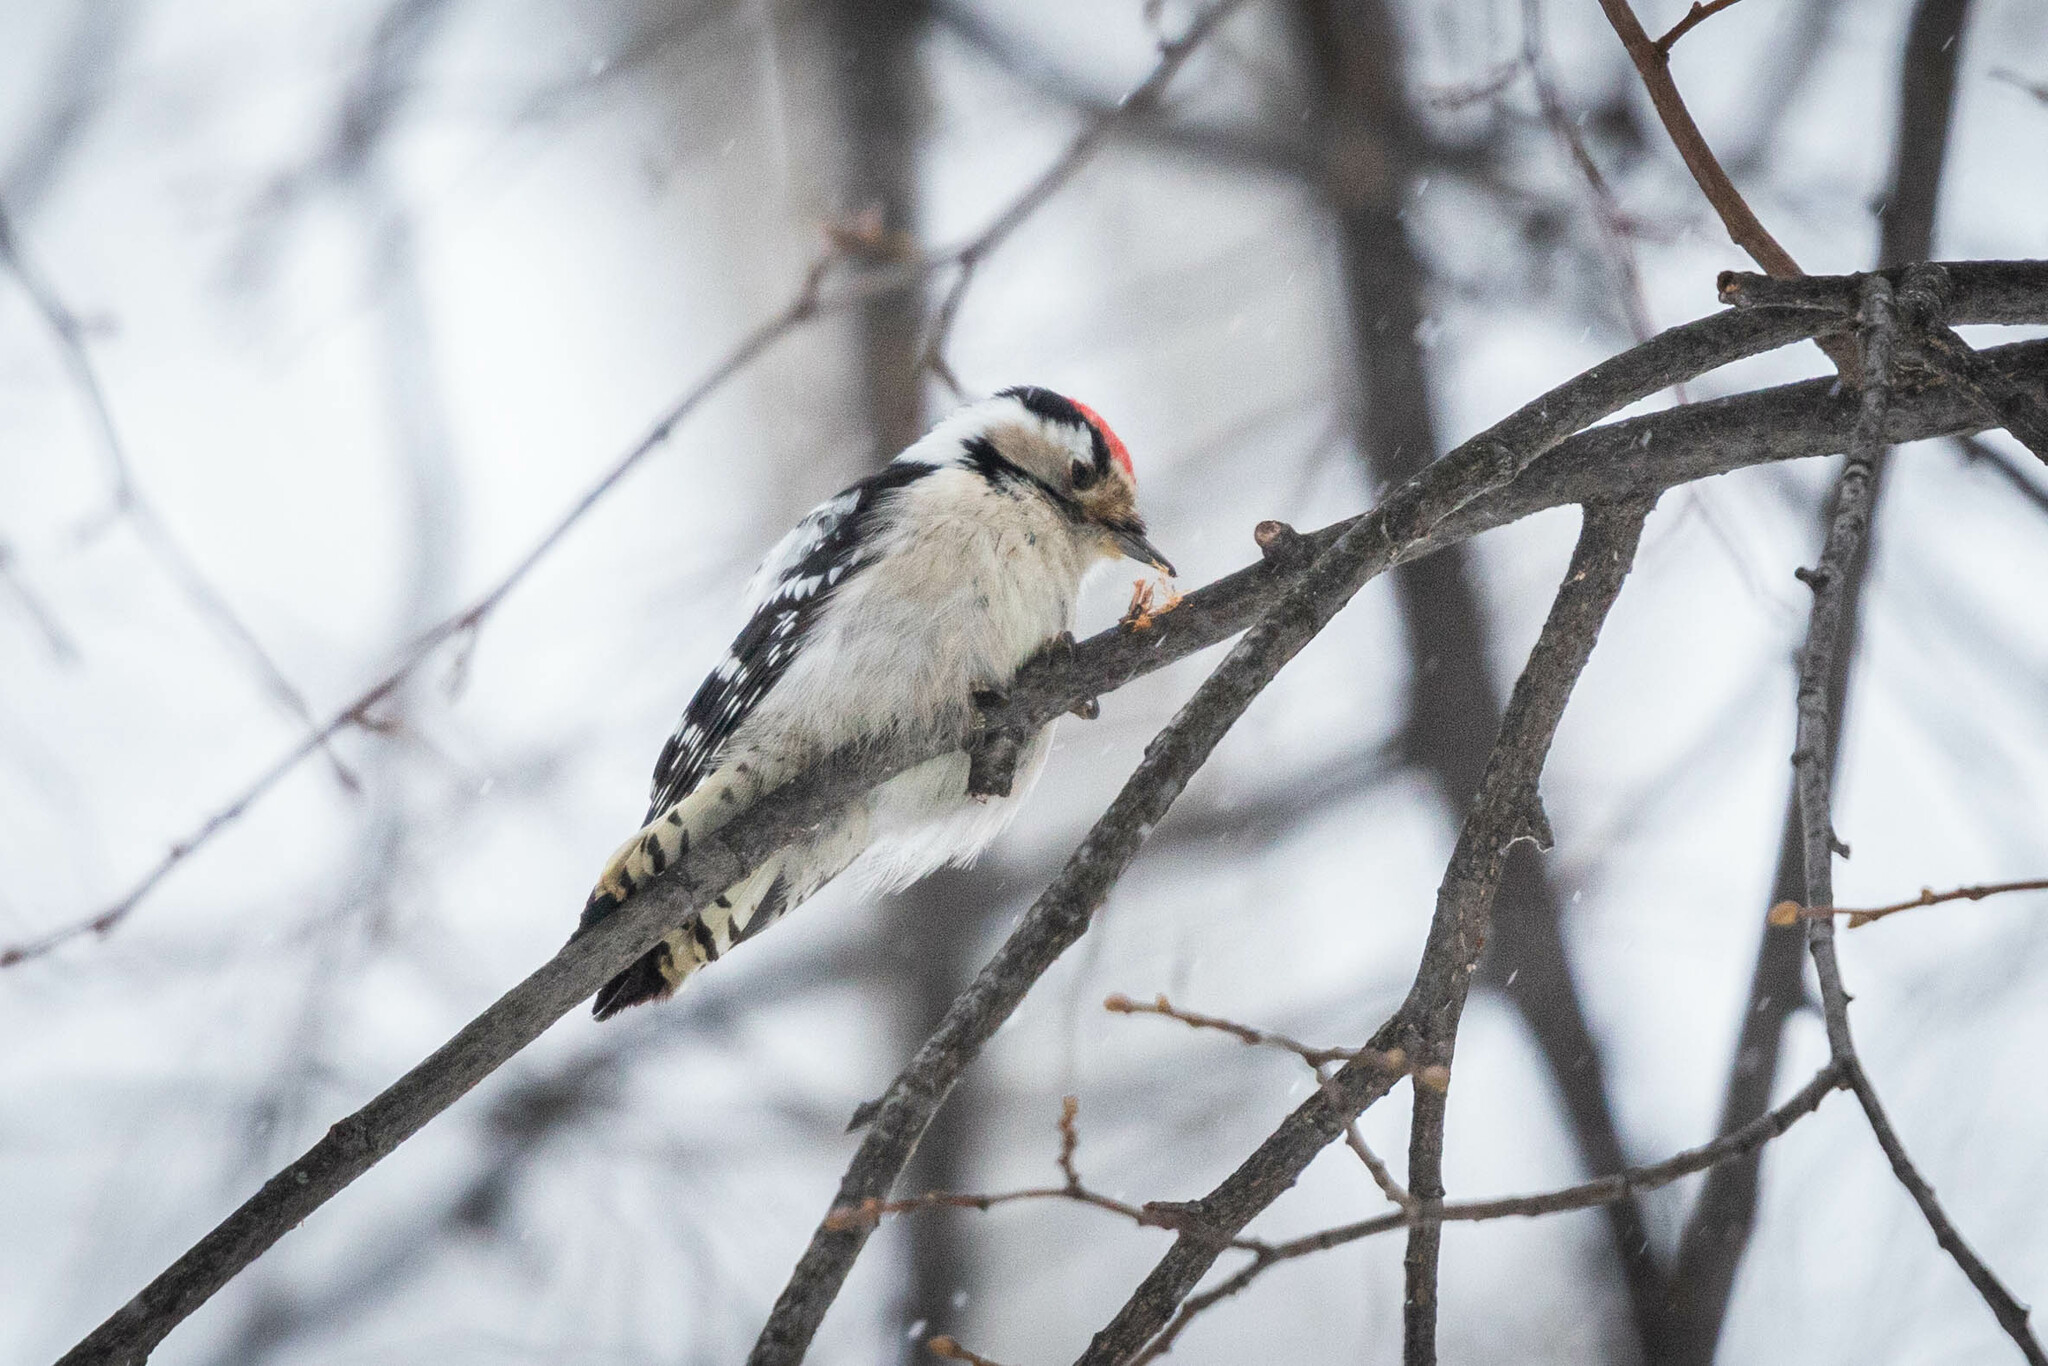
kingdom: Animalia
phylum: Chordata
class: Aves
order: Piciformes
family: Picidae
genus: Dryobates
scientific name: Dryobates minor
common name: Lesser spotted woodpecker
